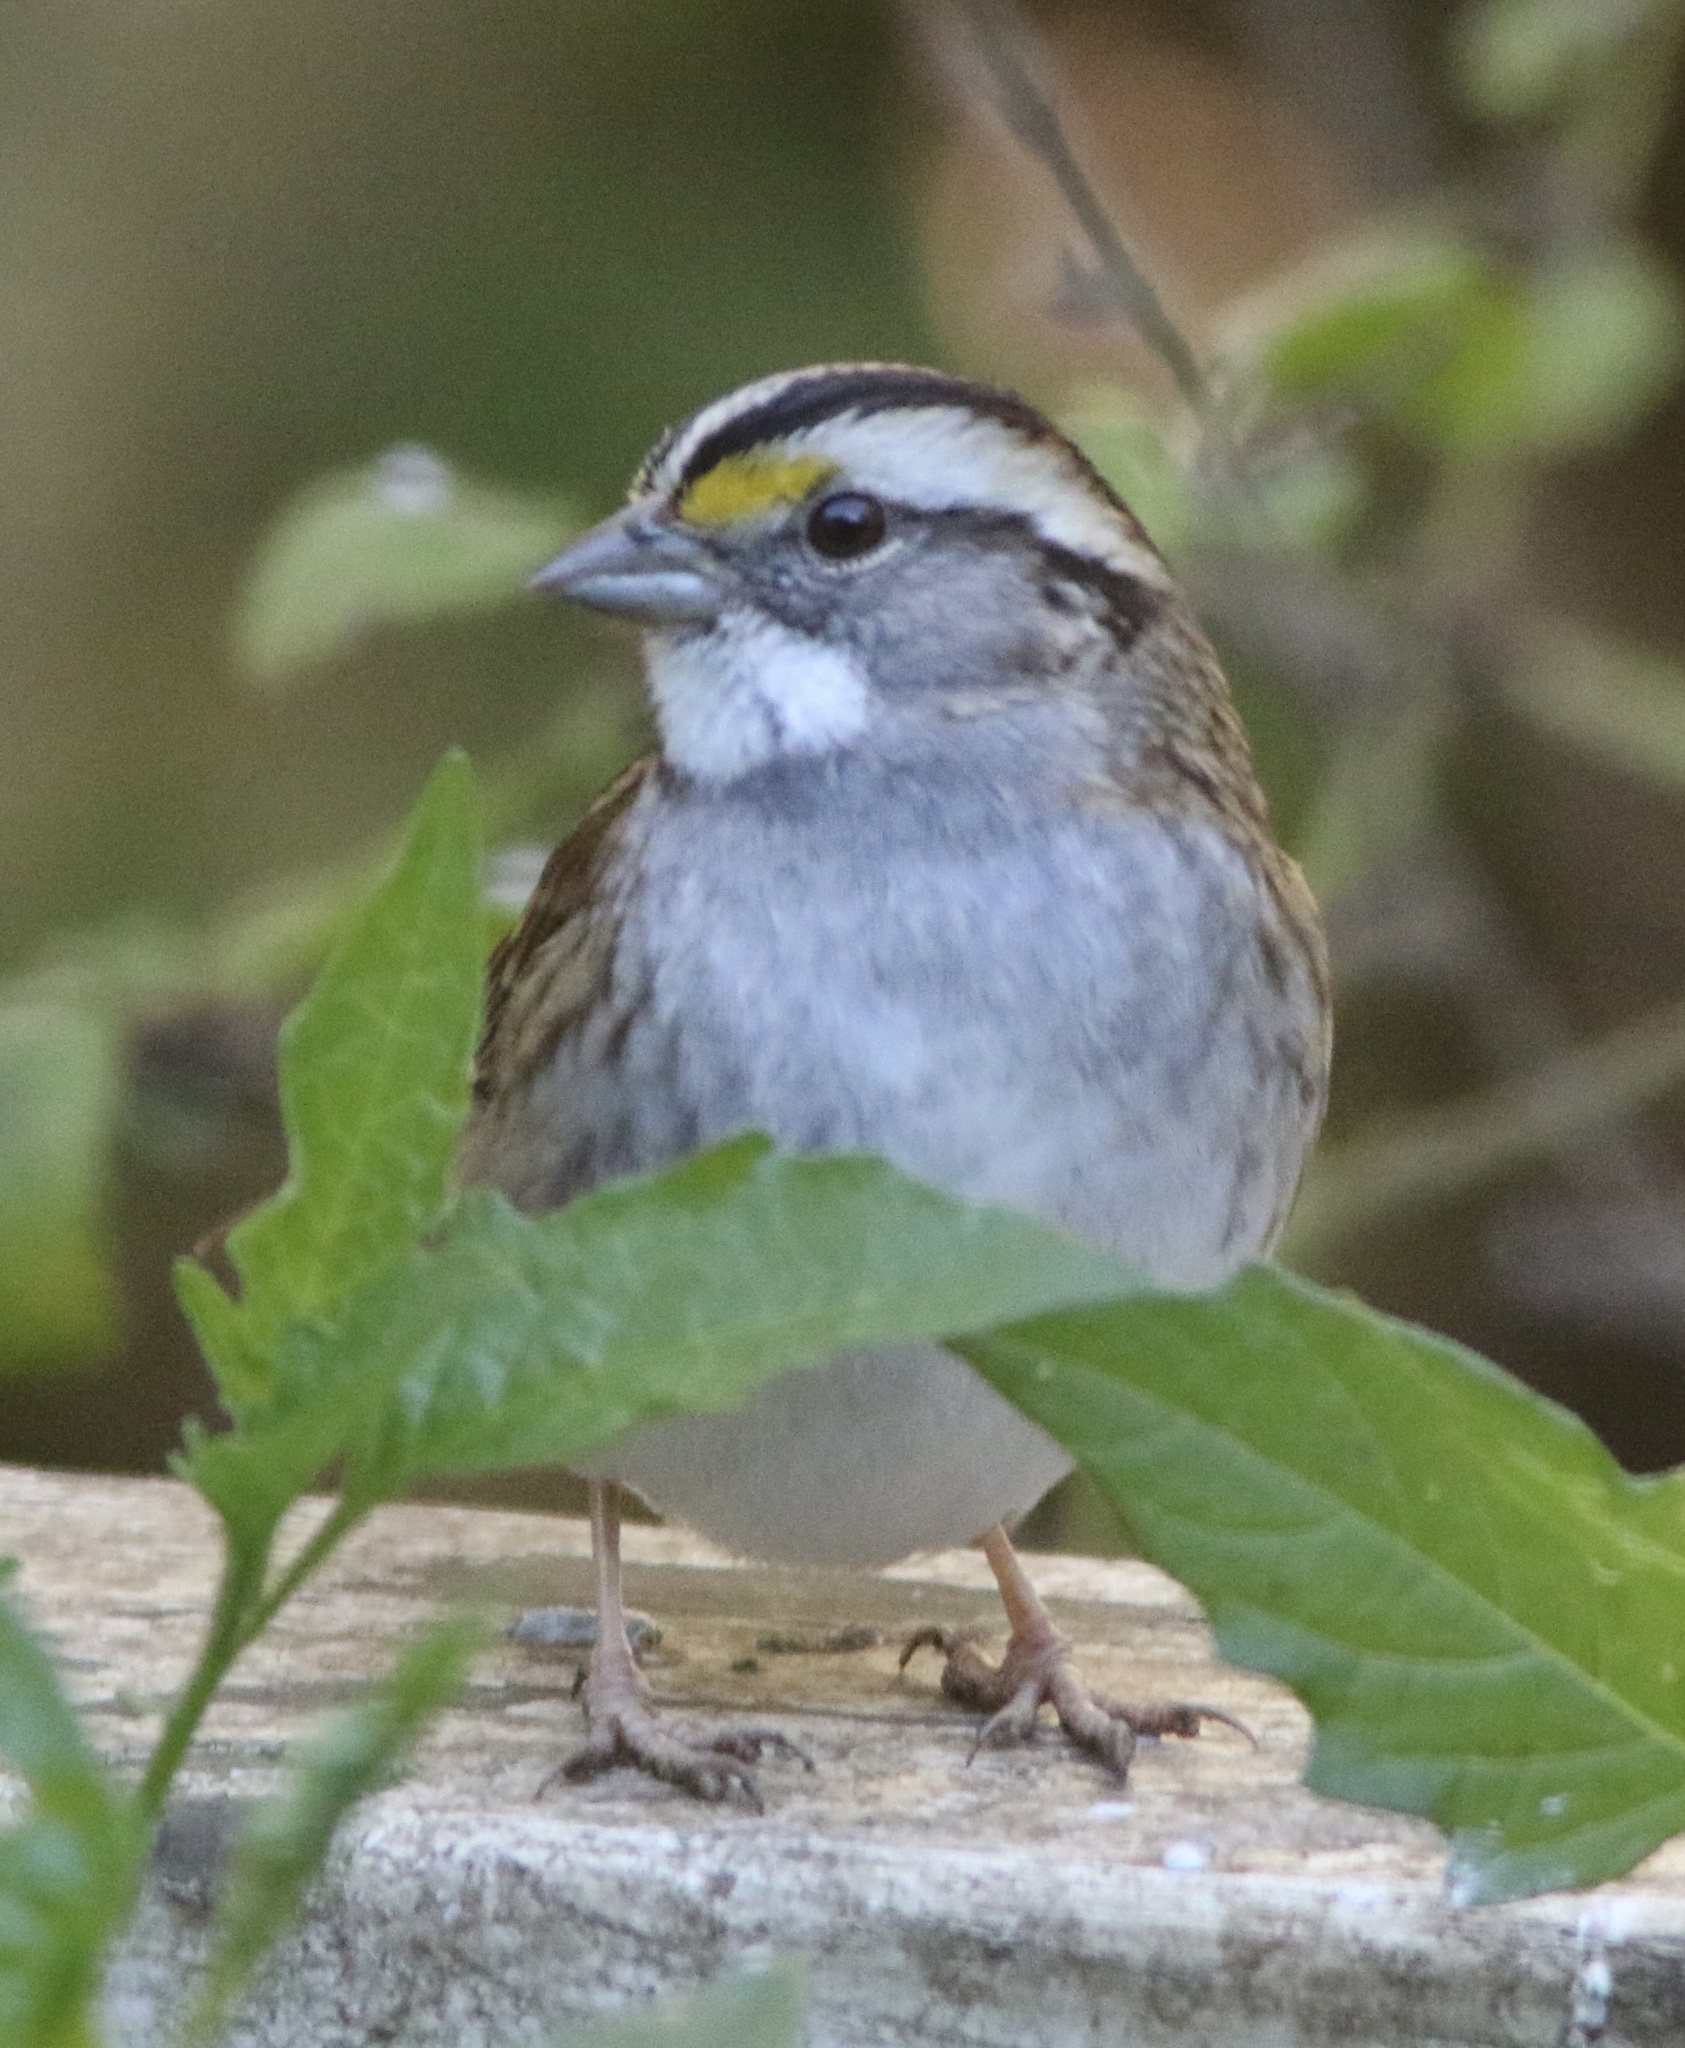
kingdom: Animalia
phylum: Chordata
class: Aves
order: Passeriformes
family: Passerellidae
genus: Zonotrichia
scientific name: Zonotrichia albicollis
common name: White-throated sparrow
